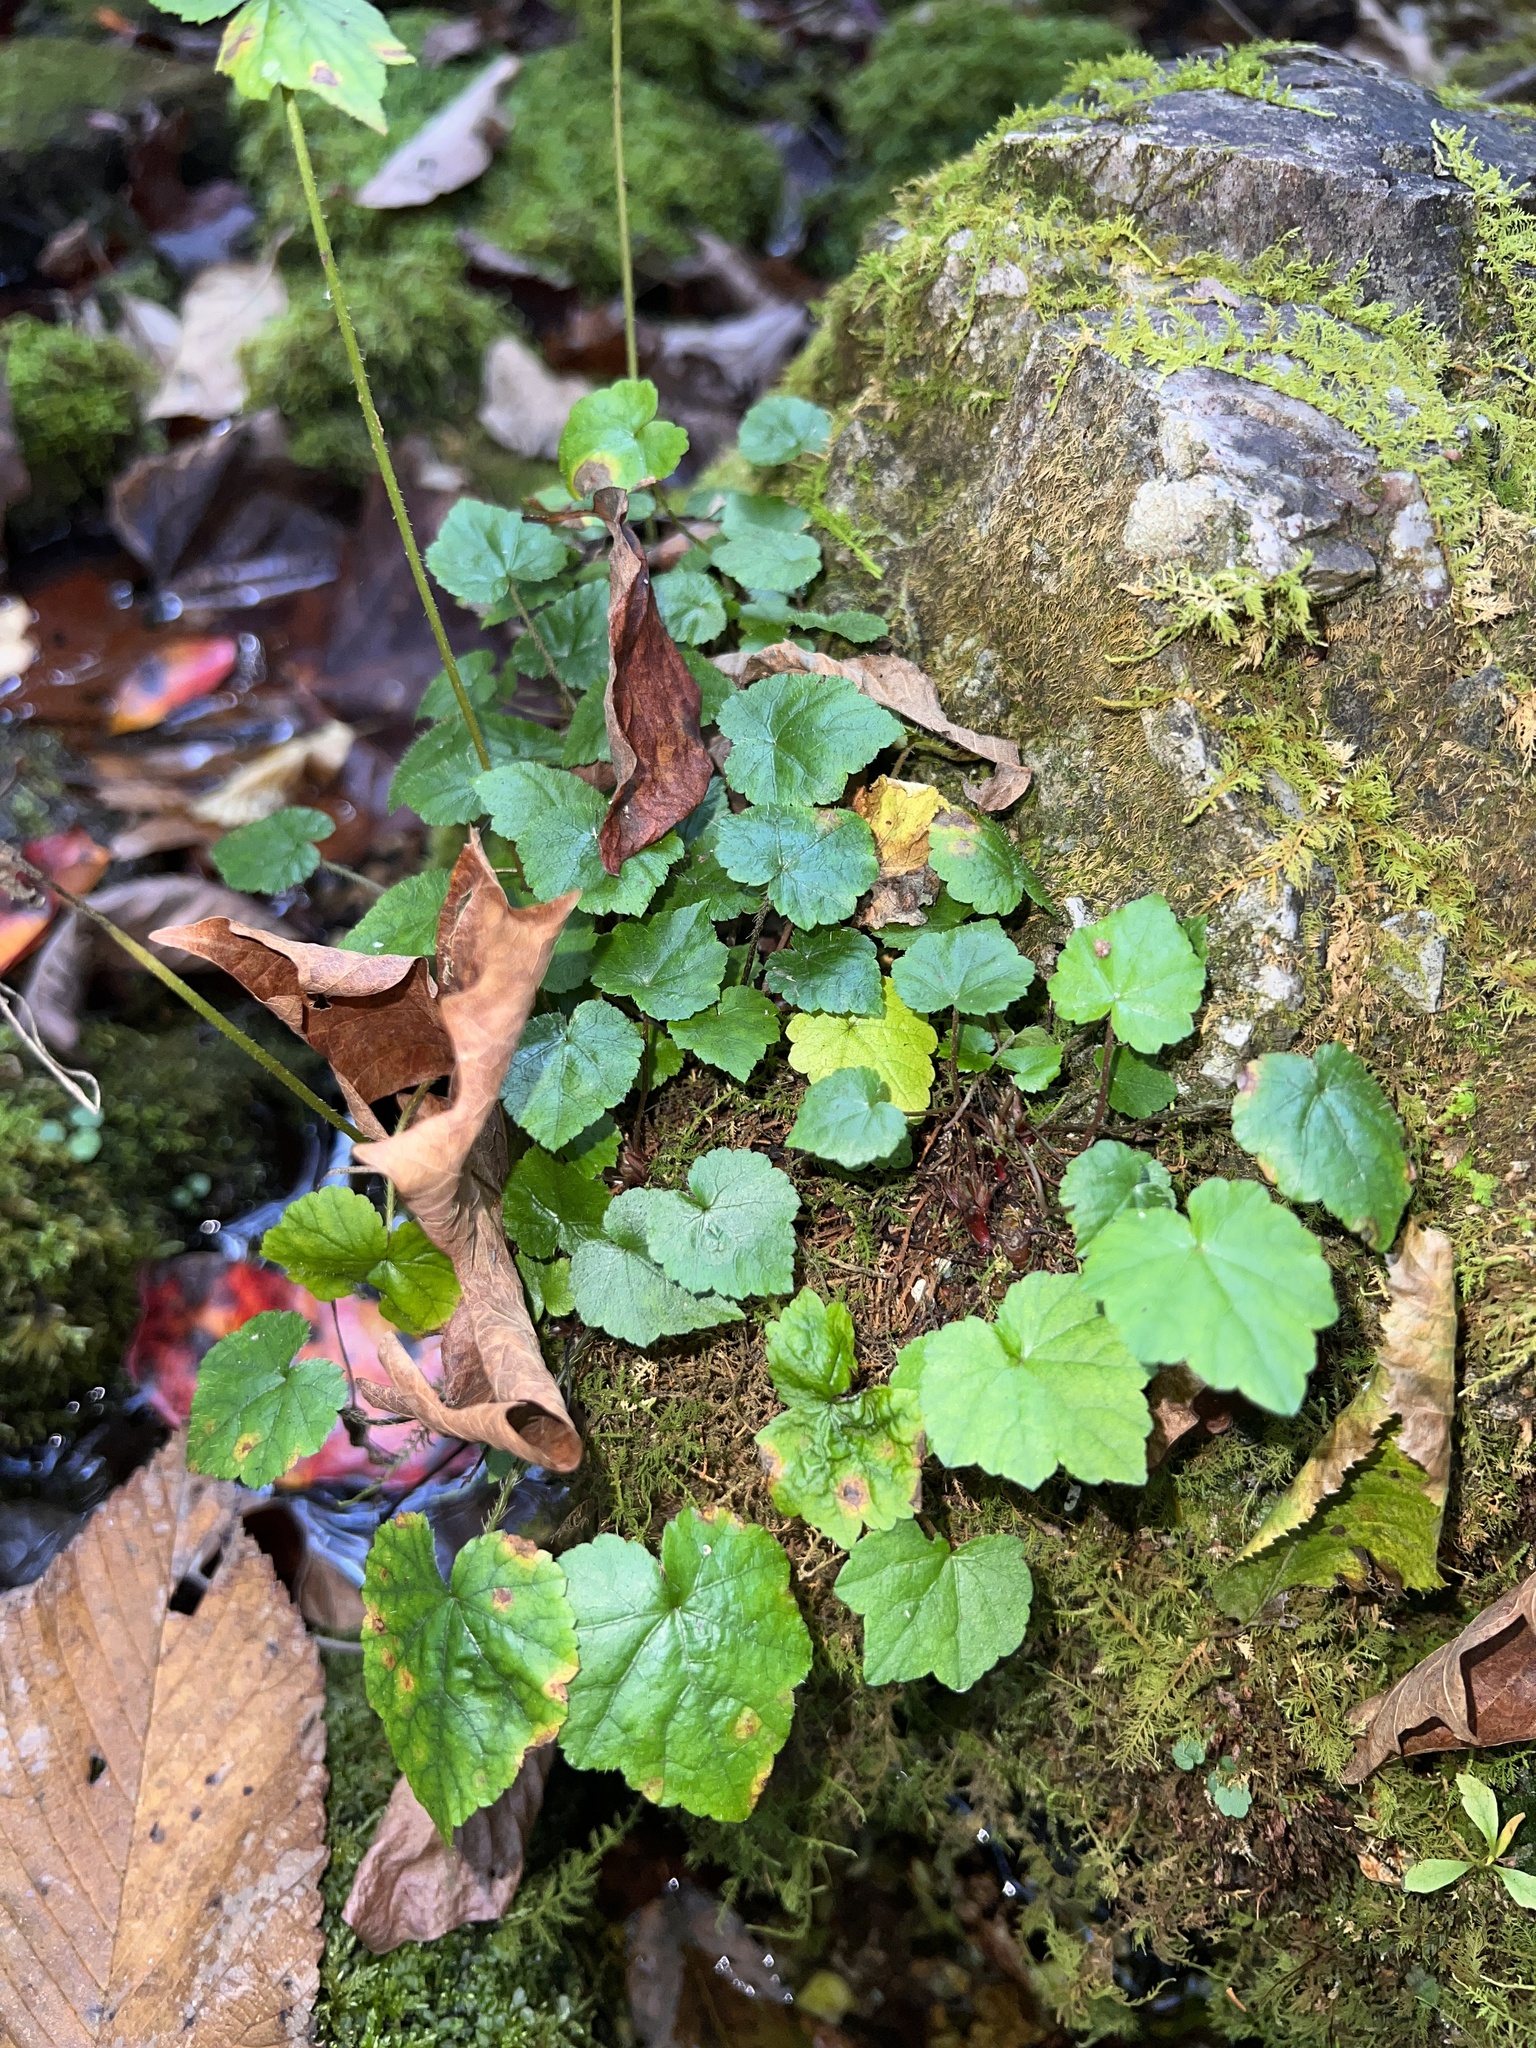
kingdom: Plantae
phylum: Tracheophyta
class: Magnoliopsida
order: Saxifragales
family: Saxifragaceae
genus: Mitella
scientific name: Mitella diphylla
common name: Coolwort
